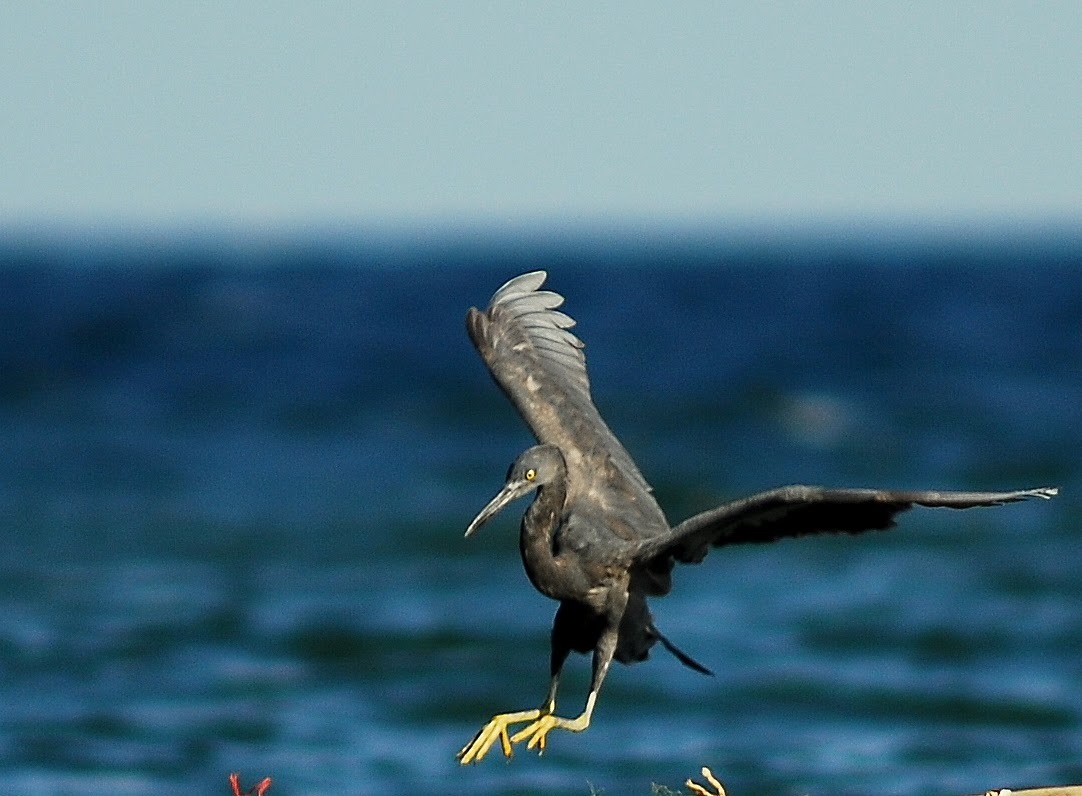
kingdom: Animalia
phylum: Chordata
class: Aves
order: Pelecaniformes
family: Ardeidae
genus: Egretta
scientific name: Egretta sacra
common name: Pacific reef heron
